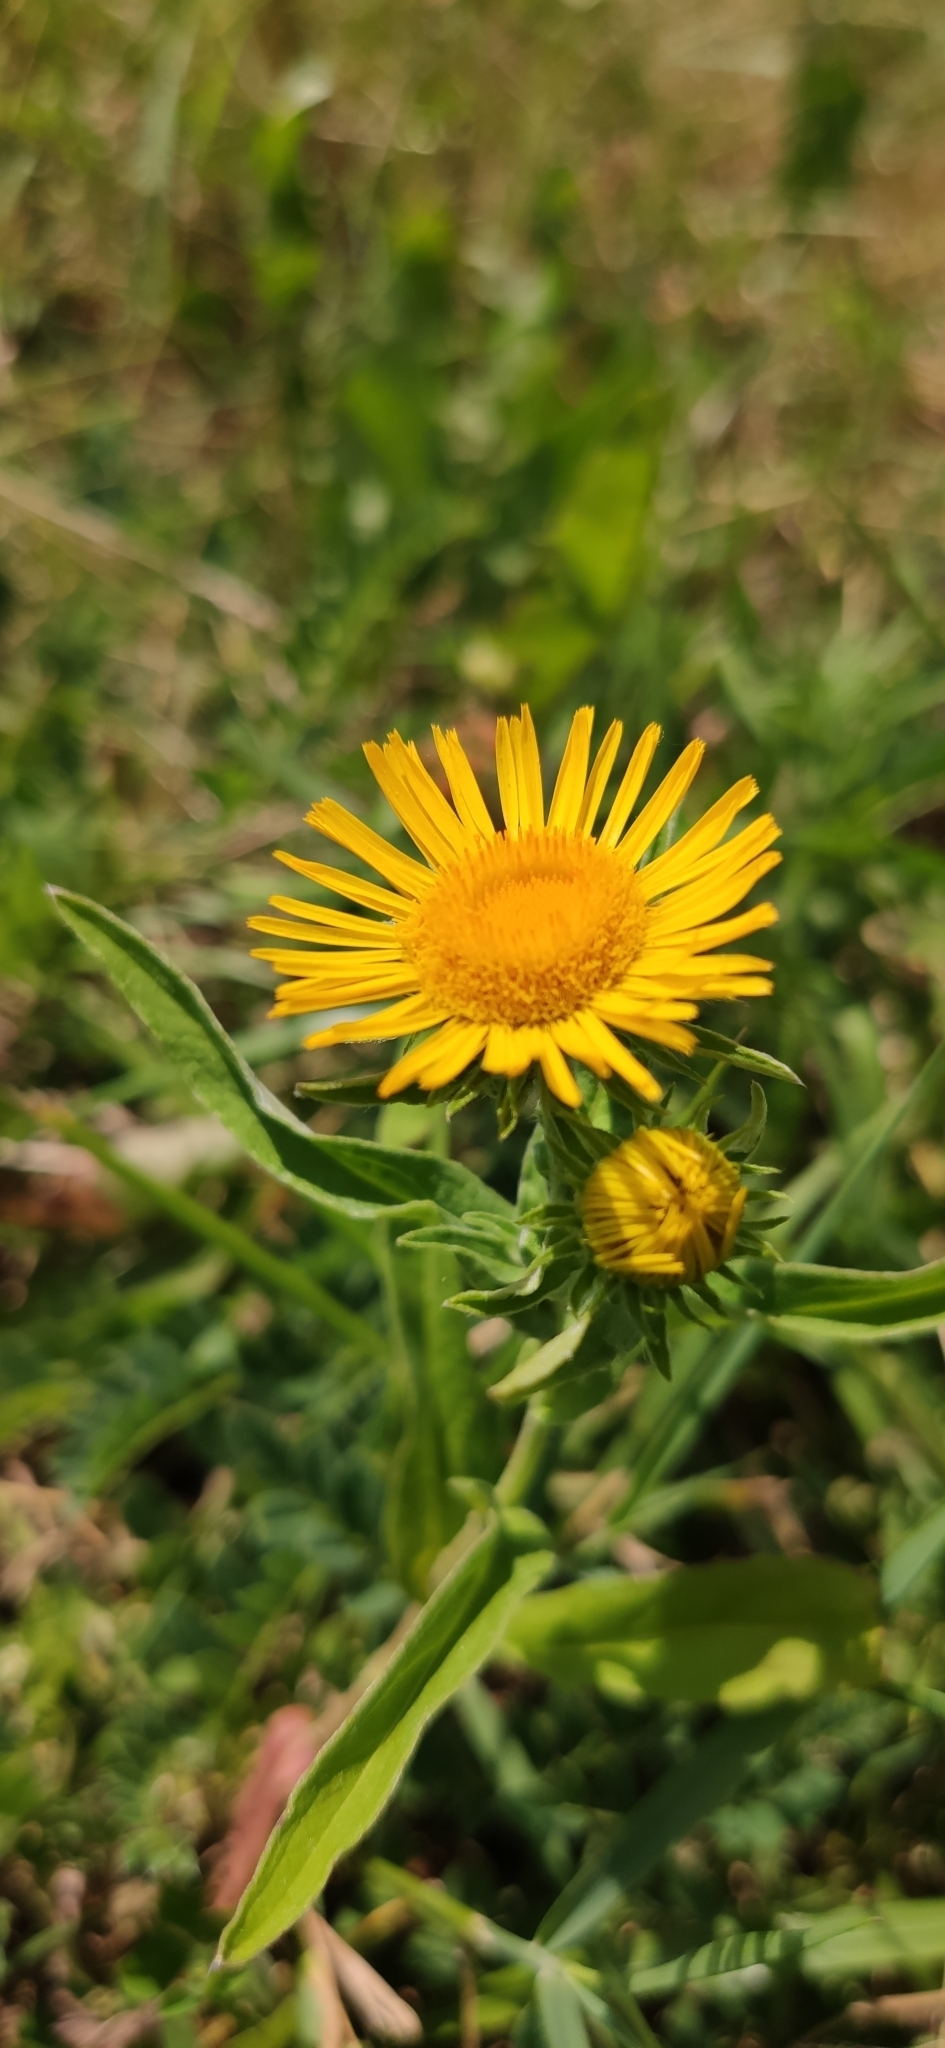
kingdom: Plantae
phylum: Tracheophyta
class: Magnoliopsida
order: Asterales
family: Asteraceae
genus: Pentanema
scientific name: Pentanema britannicum
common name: British elecampane
